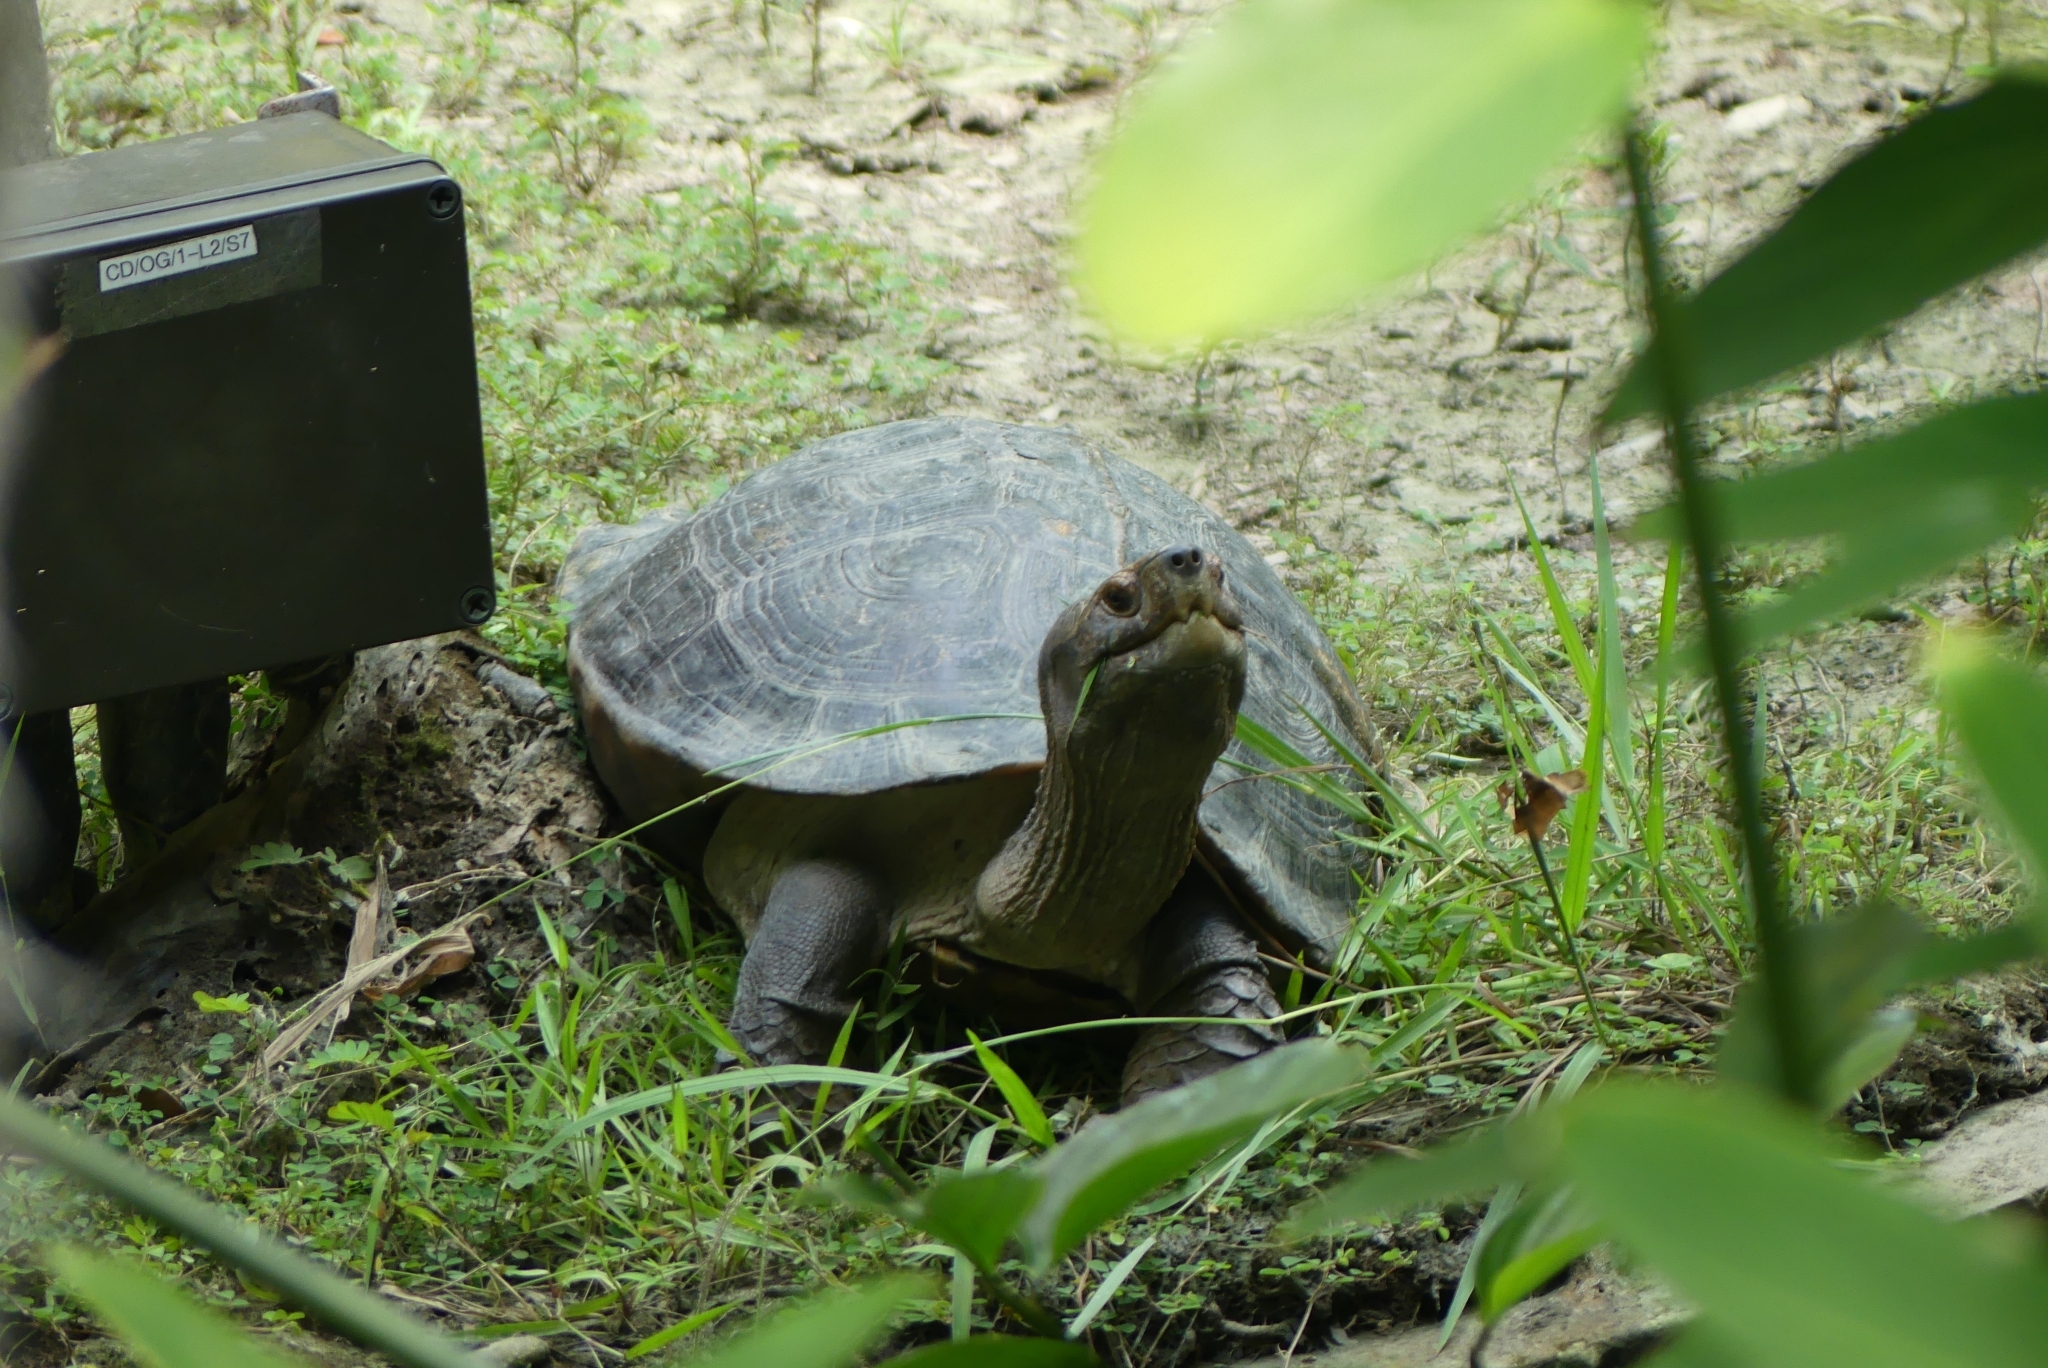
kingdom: Animalia
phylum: Chordata
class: Testudines
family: Geoemydidae
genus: Heosemys
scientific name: Heosemys grandis
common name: Giant asian pond turtle
